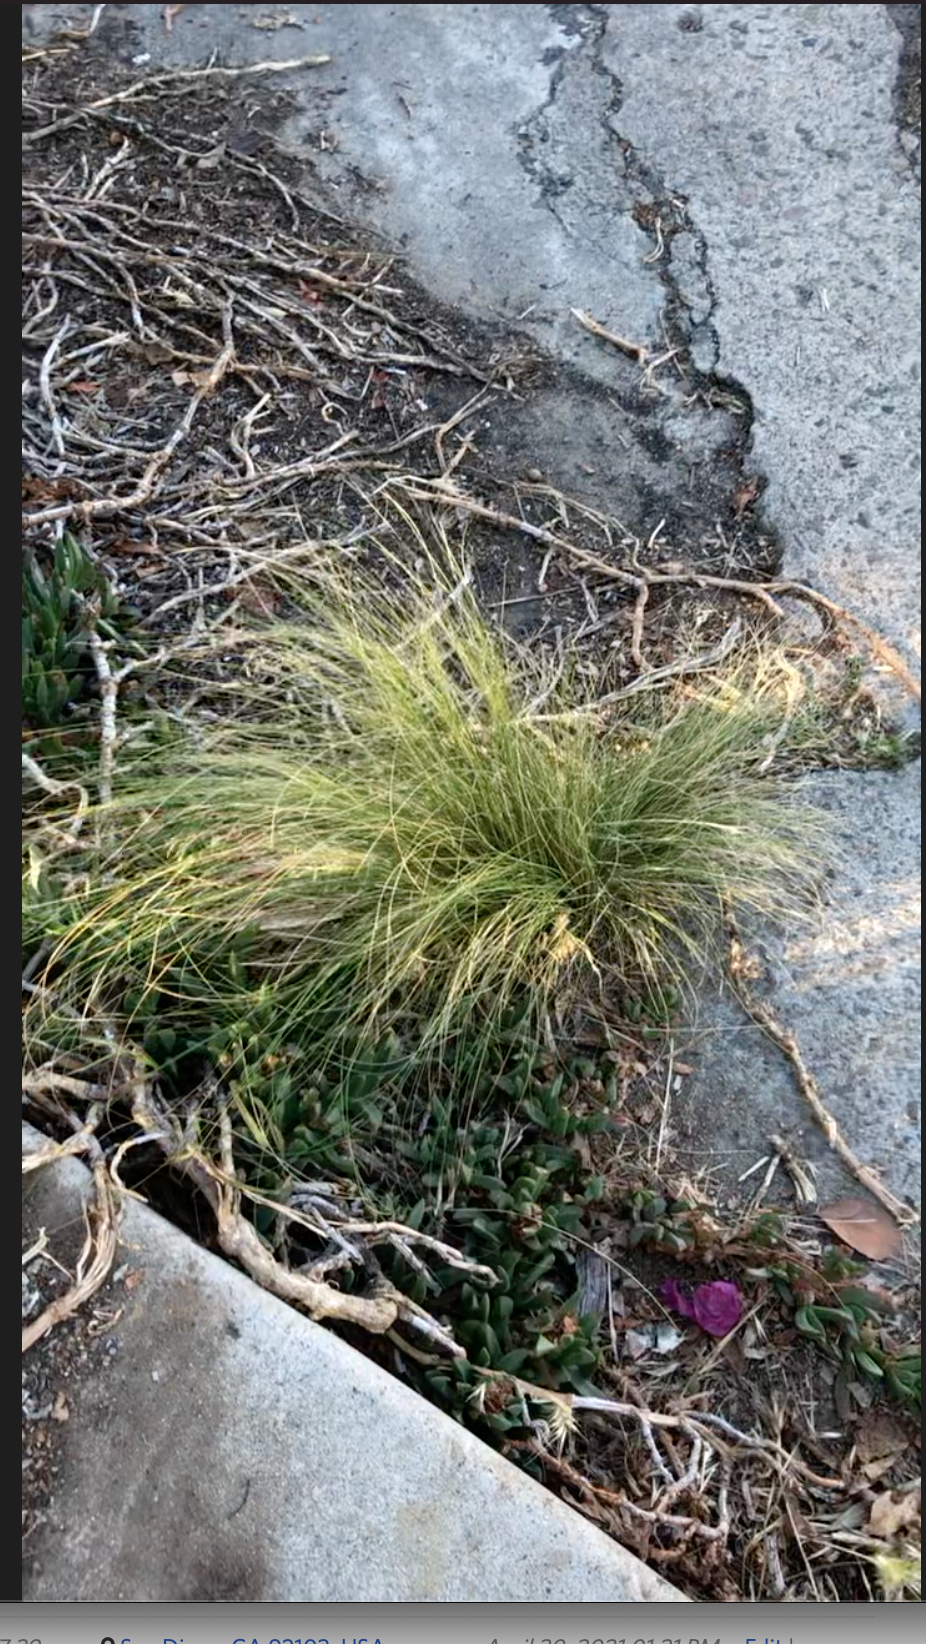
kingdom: Plantae
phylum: Tracheophyta
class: Liliopsida
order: Poales
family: Poaceae
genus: Nassella
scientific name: Nassella tenuissima
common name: Argentine needlegrass
